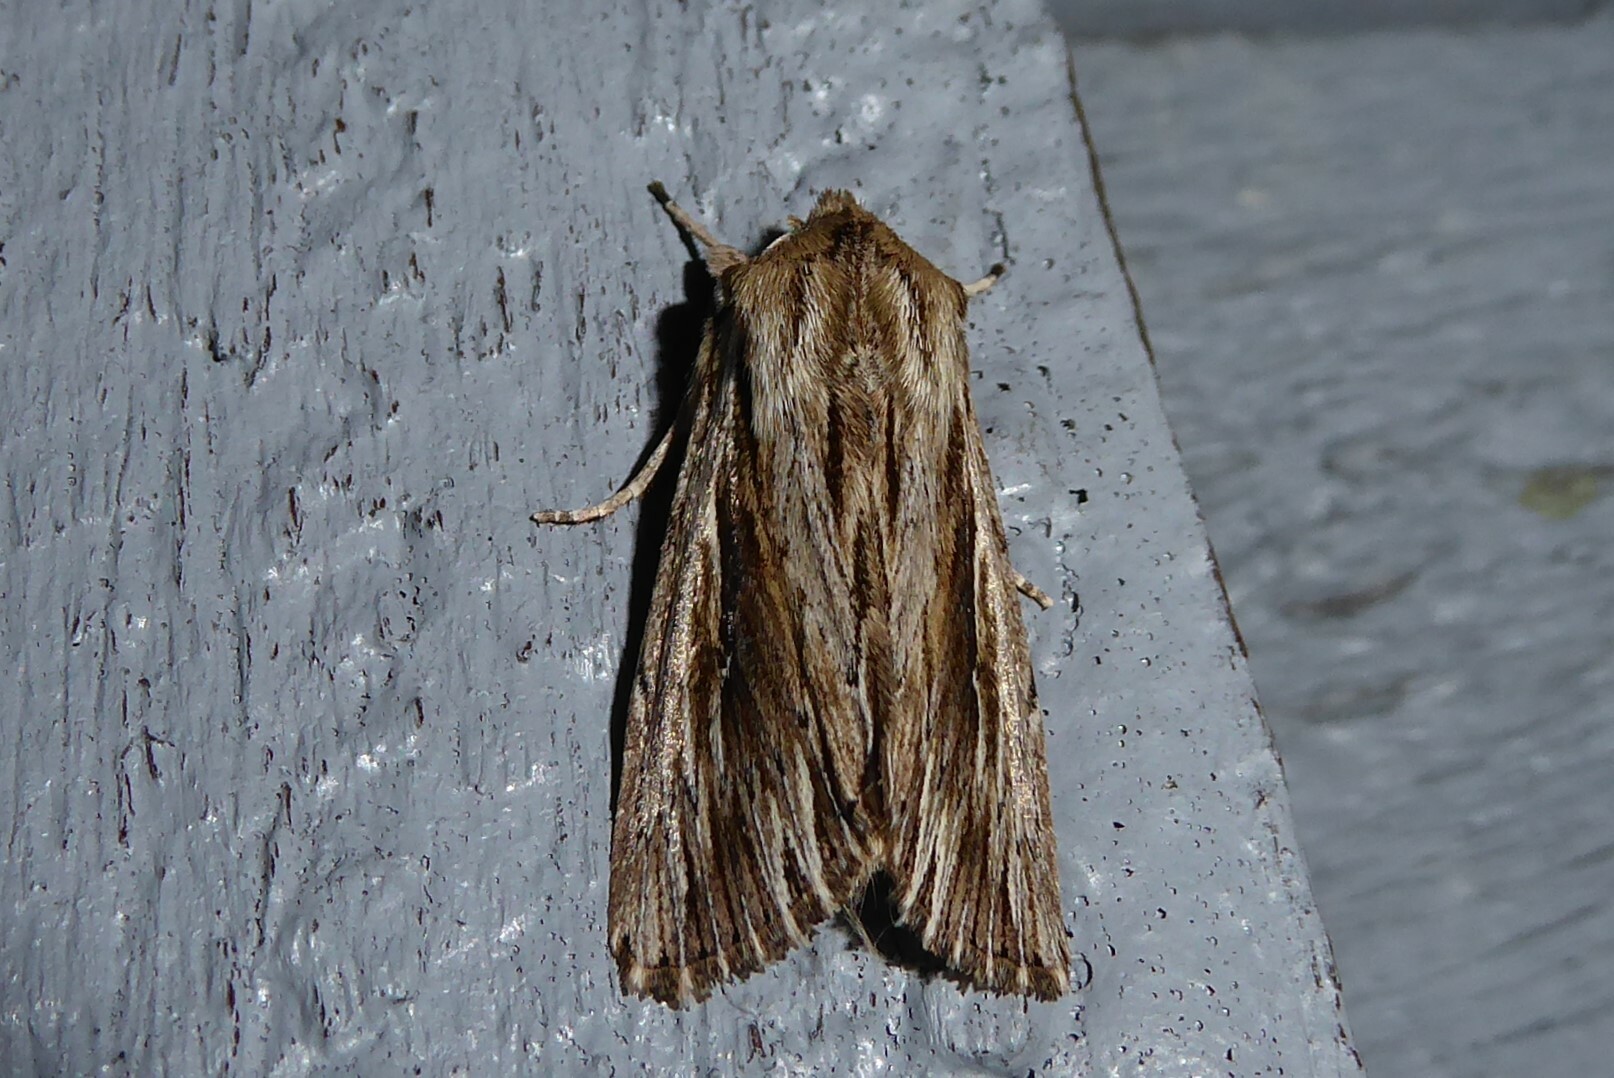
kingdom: Animalia
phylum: Arthropoda
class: Insecta
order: Lepidoptera
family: Noctuidae
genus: Persectania
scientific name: Persectania aversa
